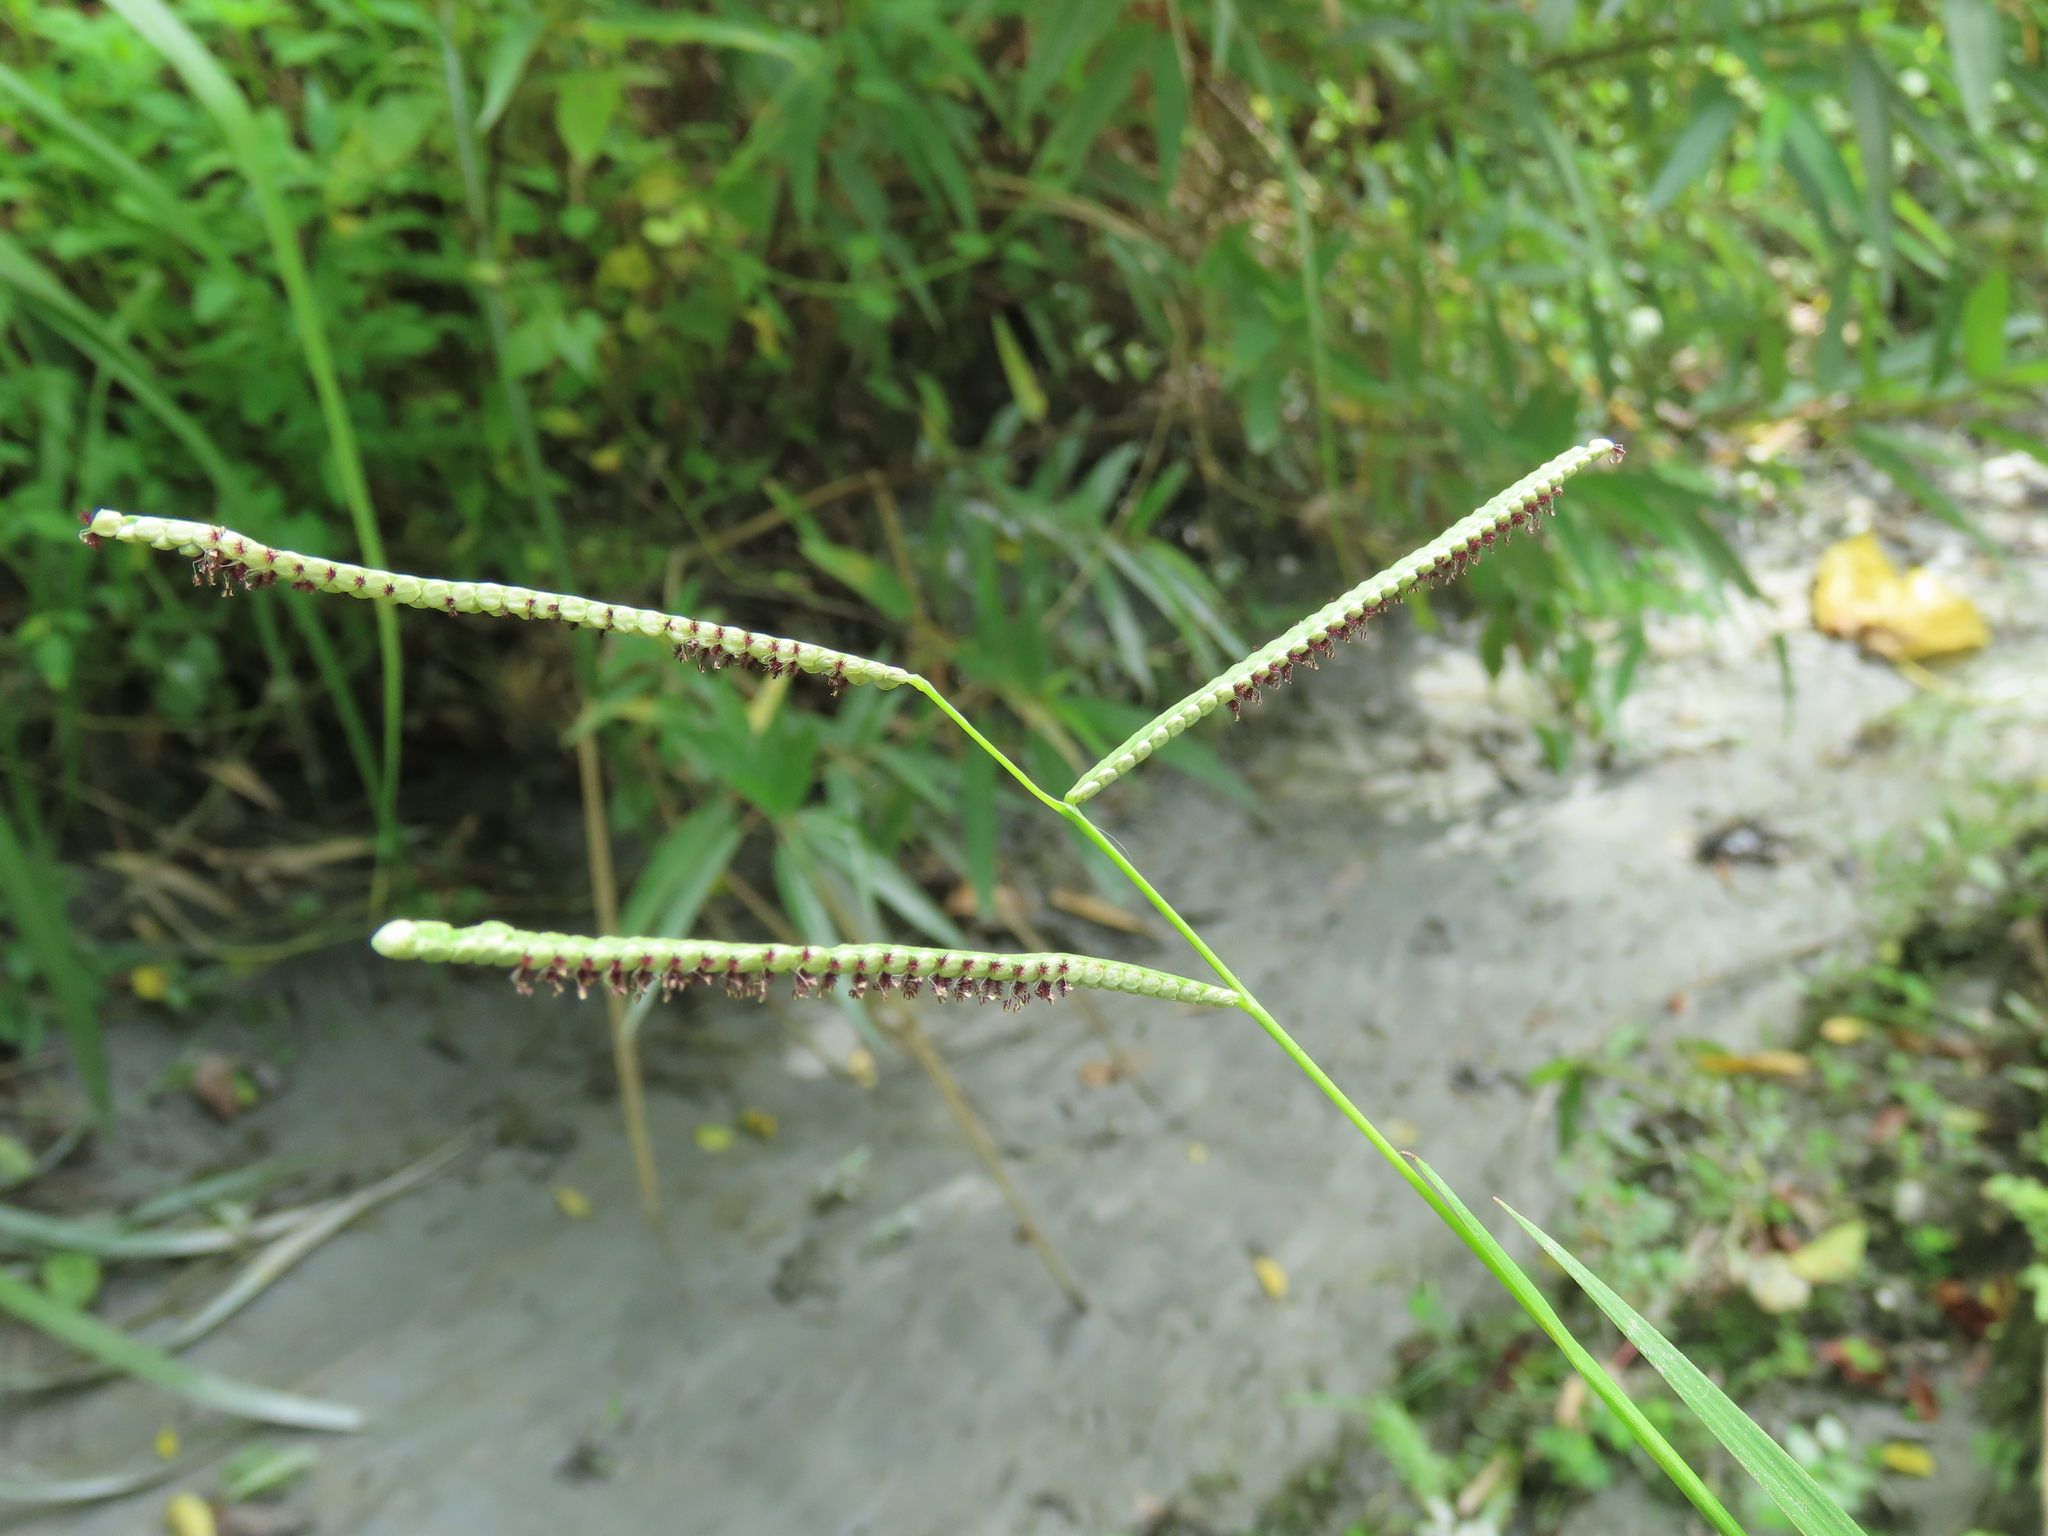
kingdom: Plantae
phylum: Tracheophyta
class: Liliopsida
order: Poales
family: Poaceae
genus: Paspalum
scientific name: Paspalum orbiculare
